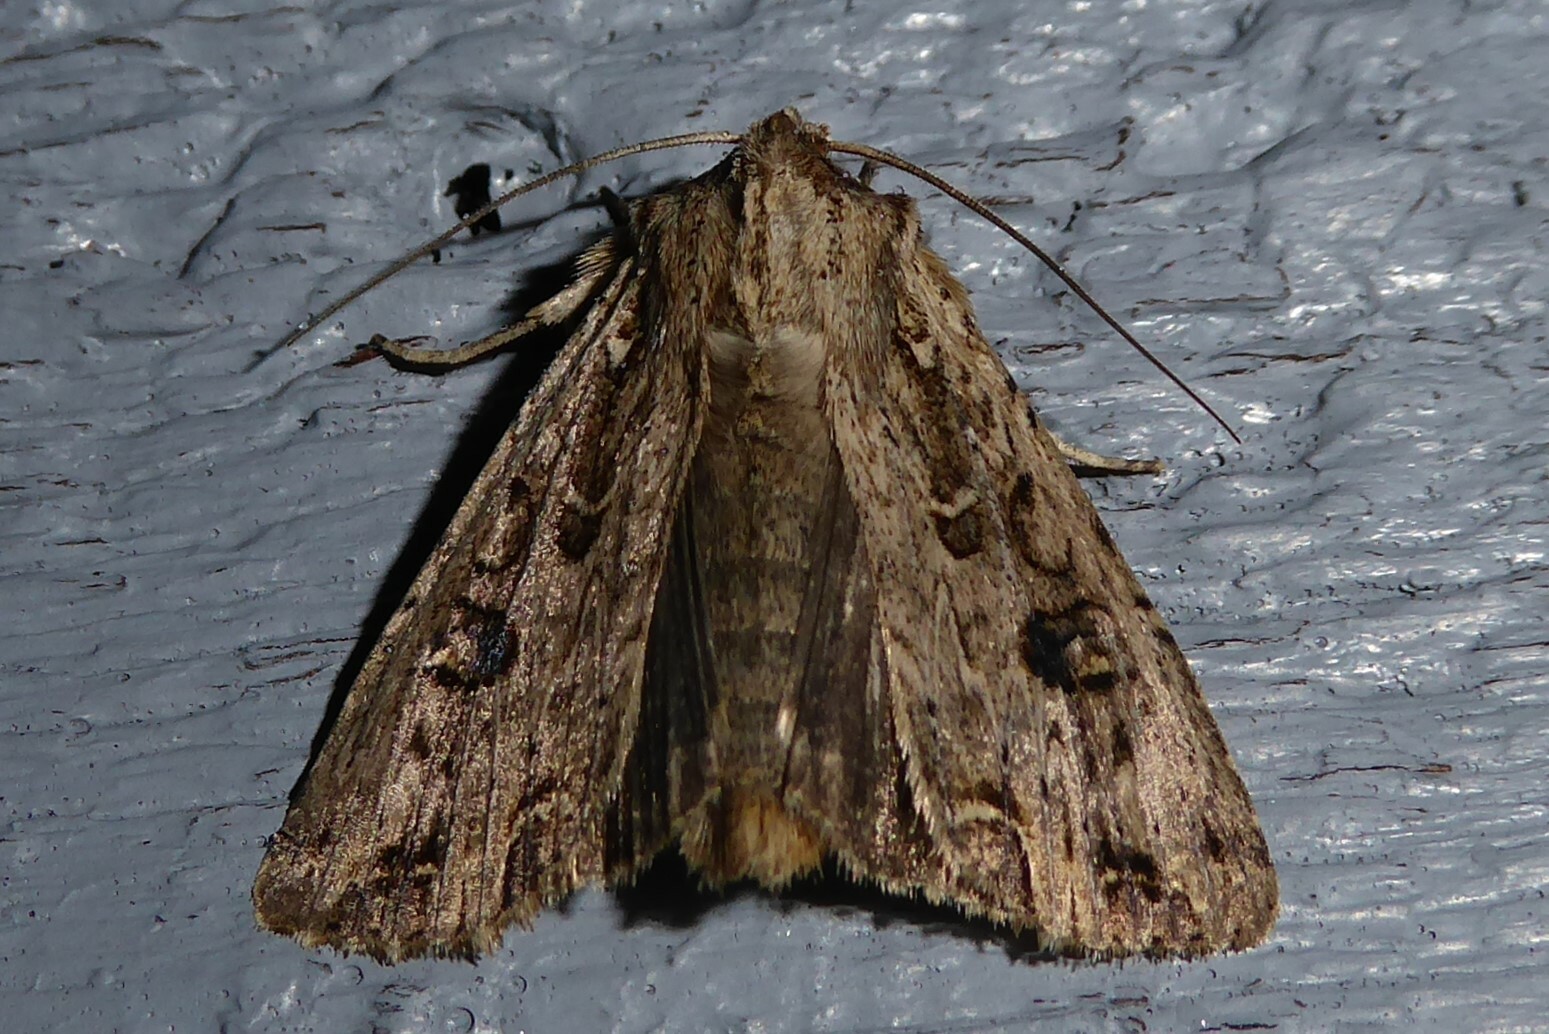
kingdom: Animalia
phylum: Arthropoda
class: Insecta
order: Lepidoptera
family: Noctuidae
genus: Ichneutica
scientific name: Ichneutica lignana
